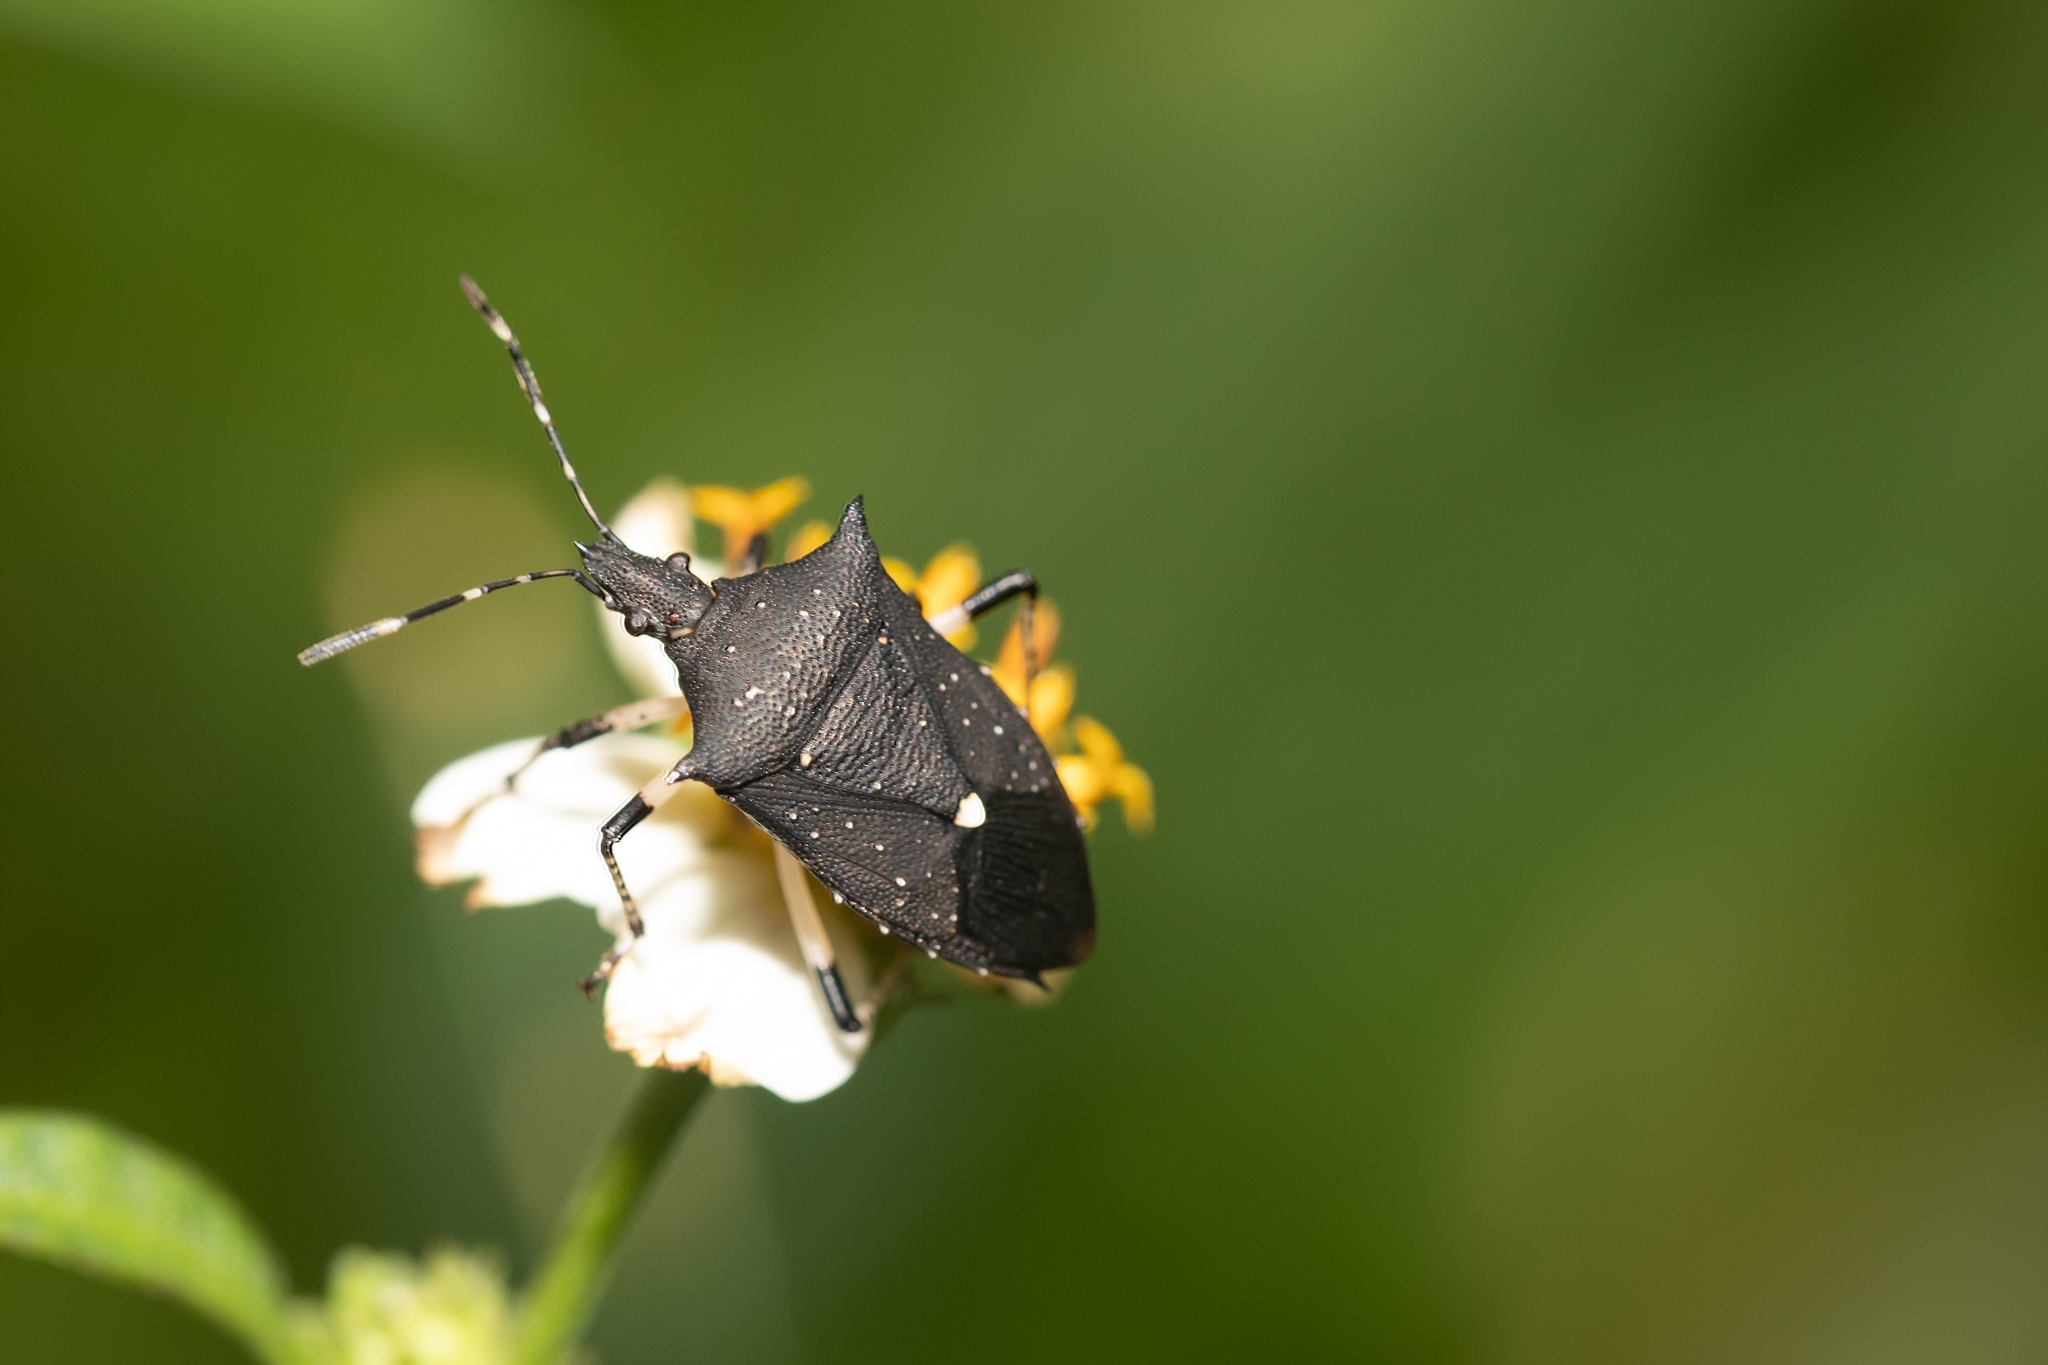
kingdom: Animalia
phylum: Arthropoda
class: Insecta
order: Hemiptera
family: Pentatomidae
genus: Proxys
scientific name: Proxys punctulatus
